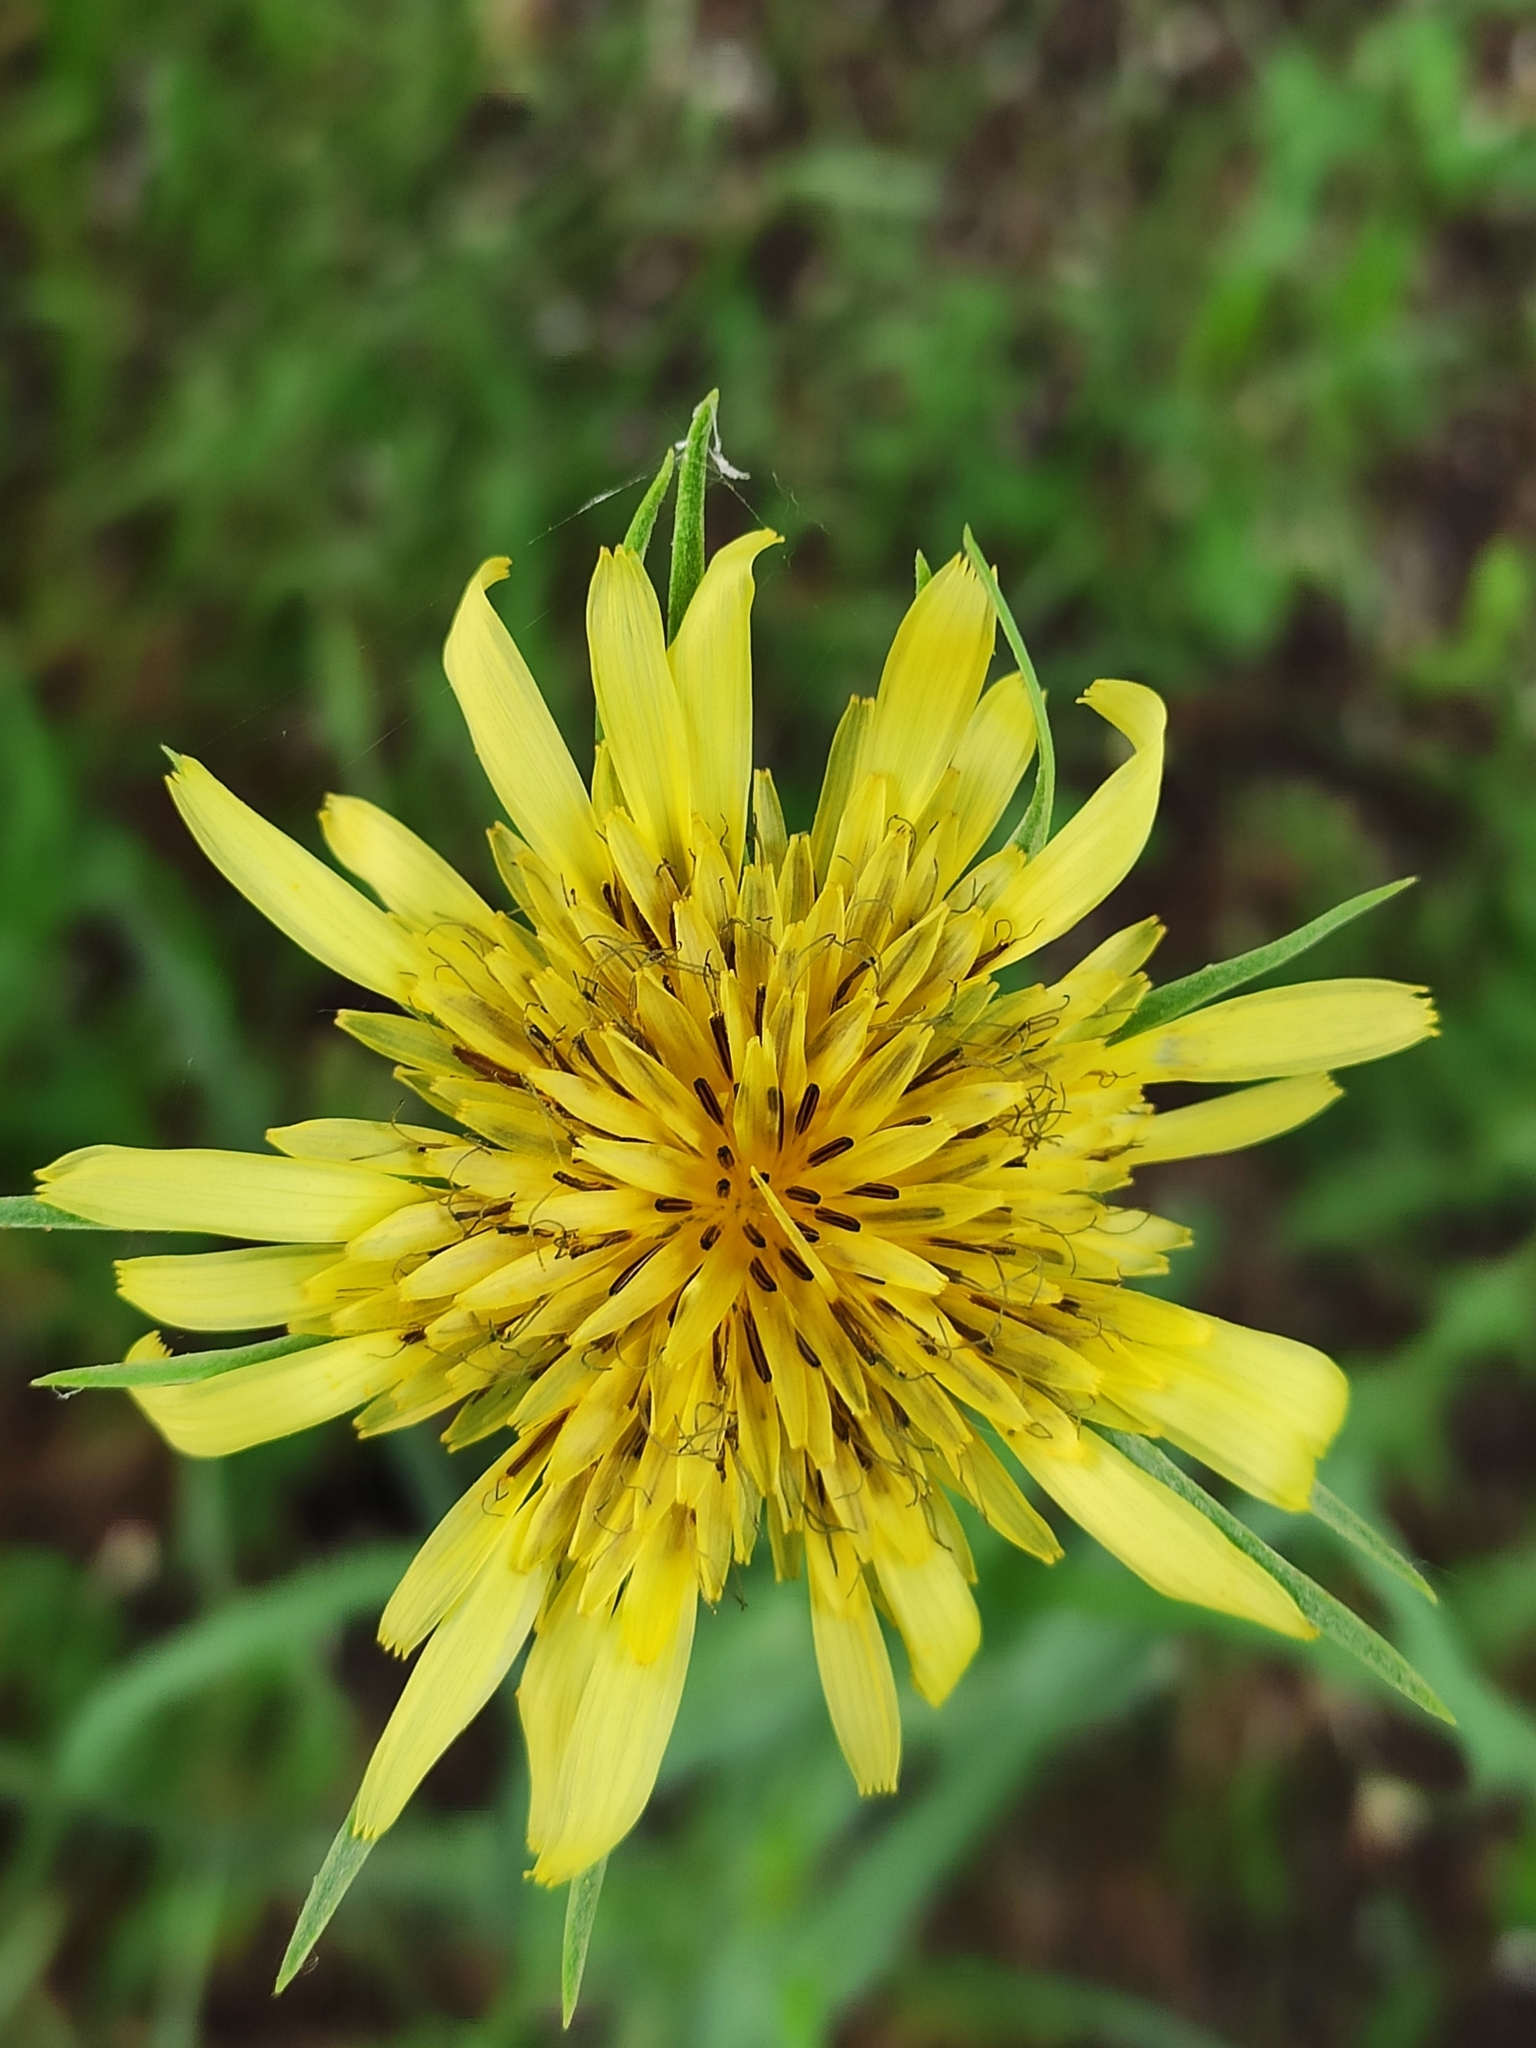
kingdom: Plantae
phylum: Tracheophyta
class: Magnoliopsida
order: Asterales
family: Asteraceae
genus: Tragopogon
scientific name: Tragopogon dubius
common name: Yellow salsify
